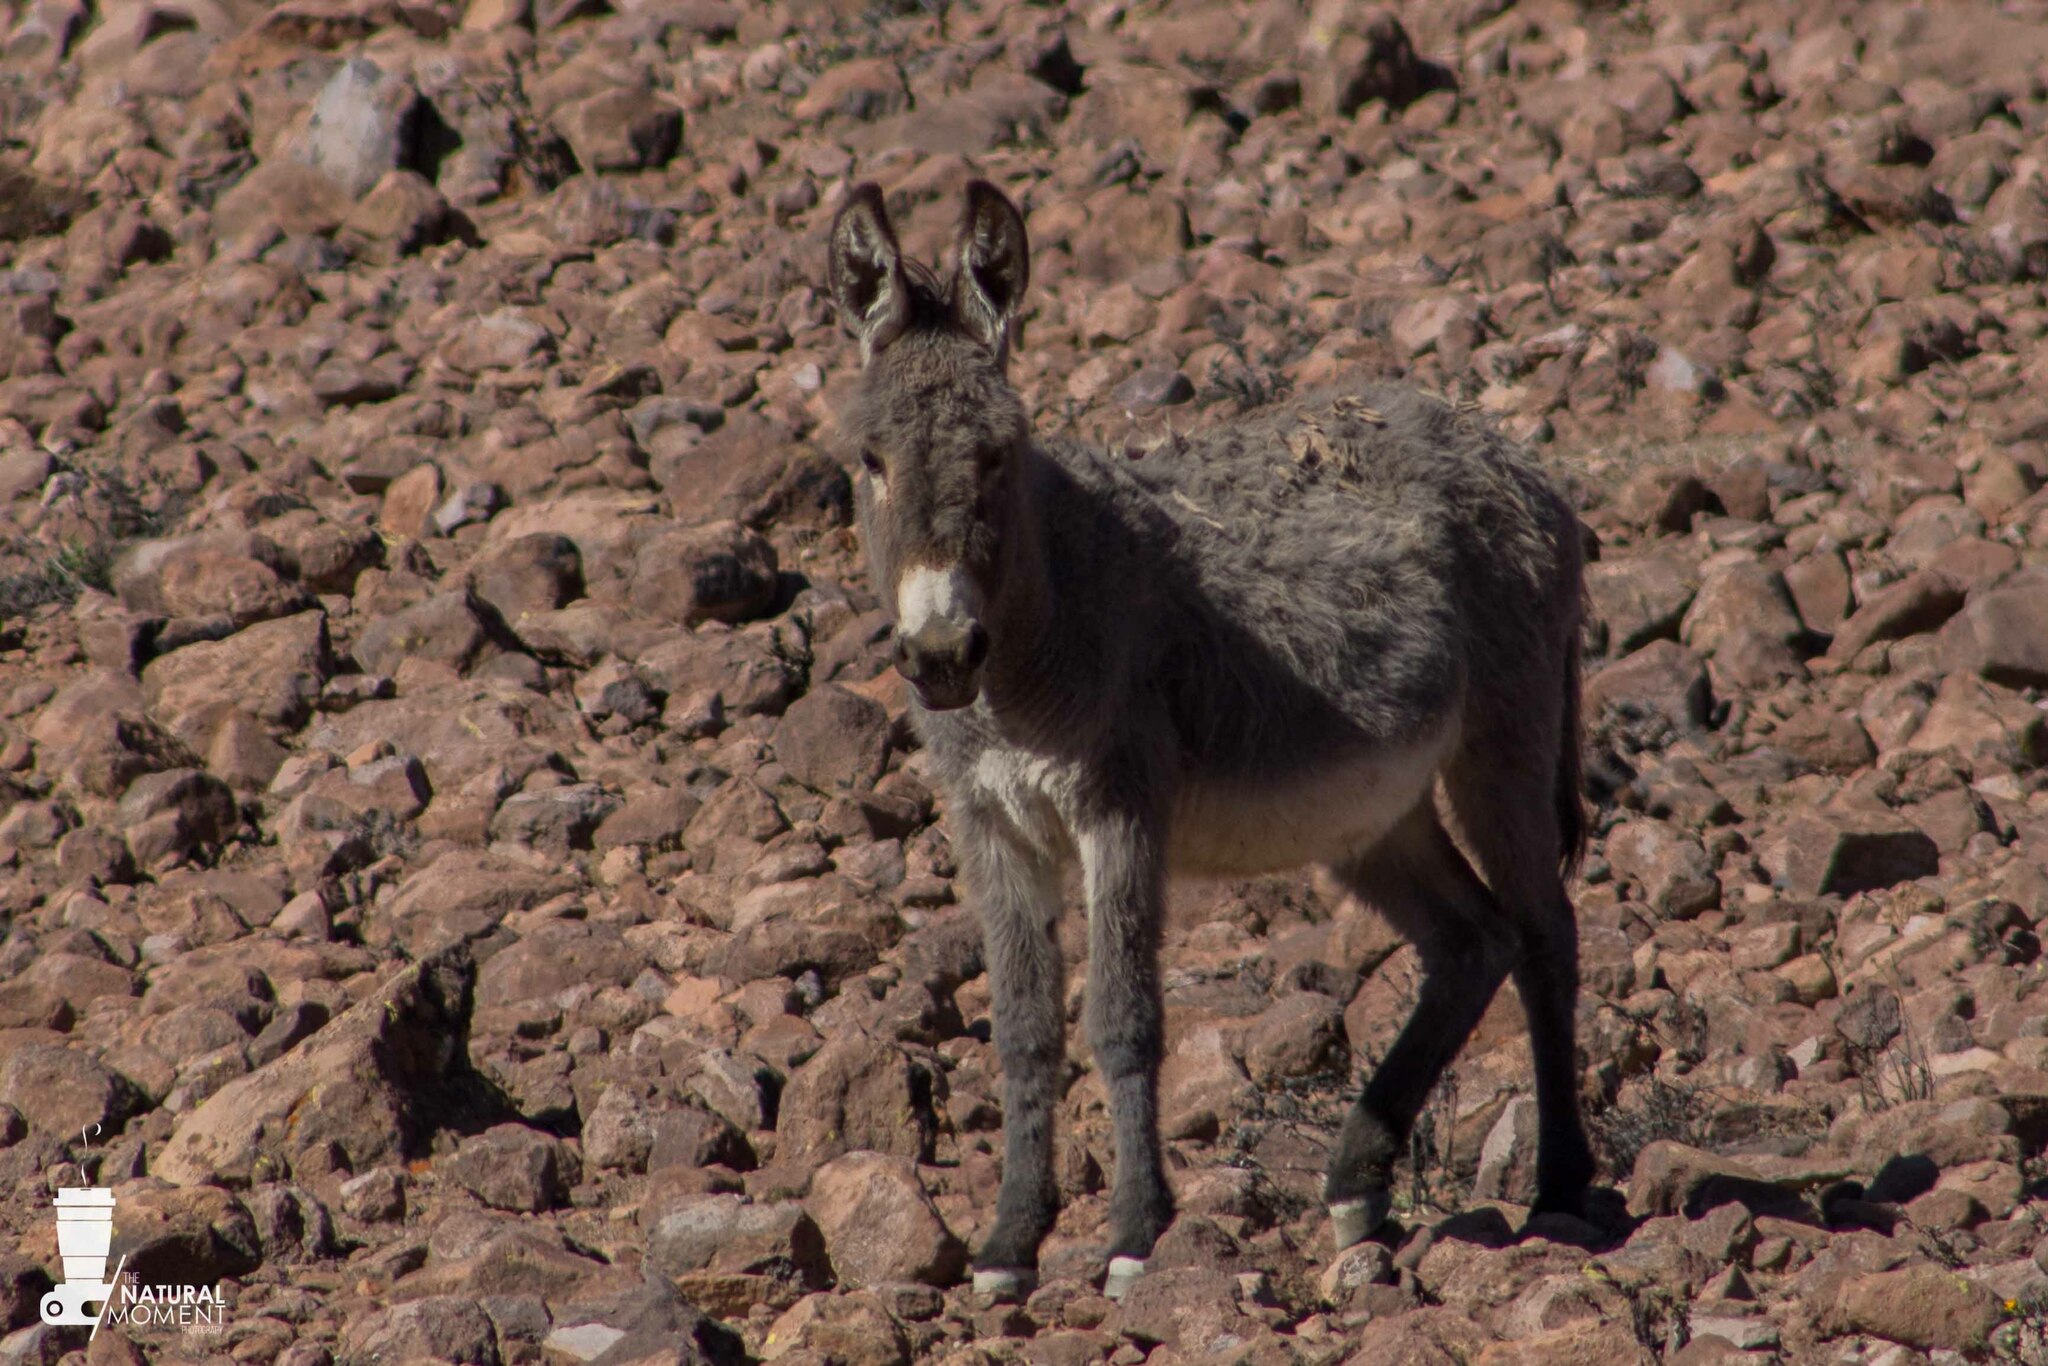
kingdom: Animalia
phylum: Chordata
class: Mammalia
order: Perissodactyla
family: Equidae
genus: Equus
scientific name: Equus asinus
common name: Ass
